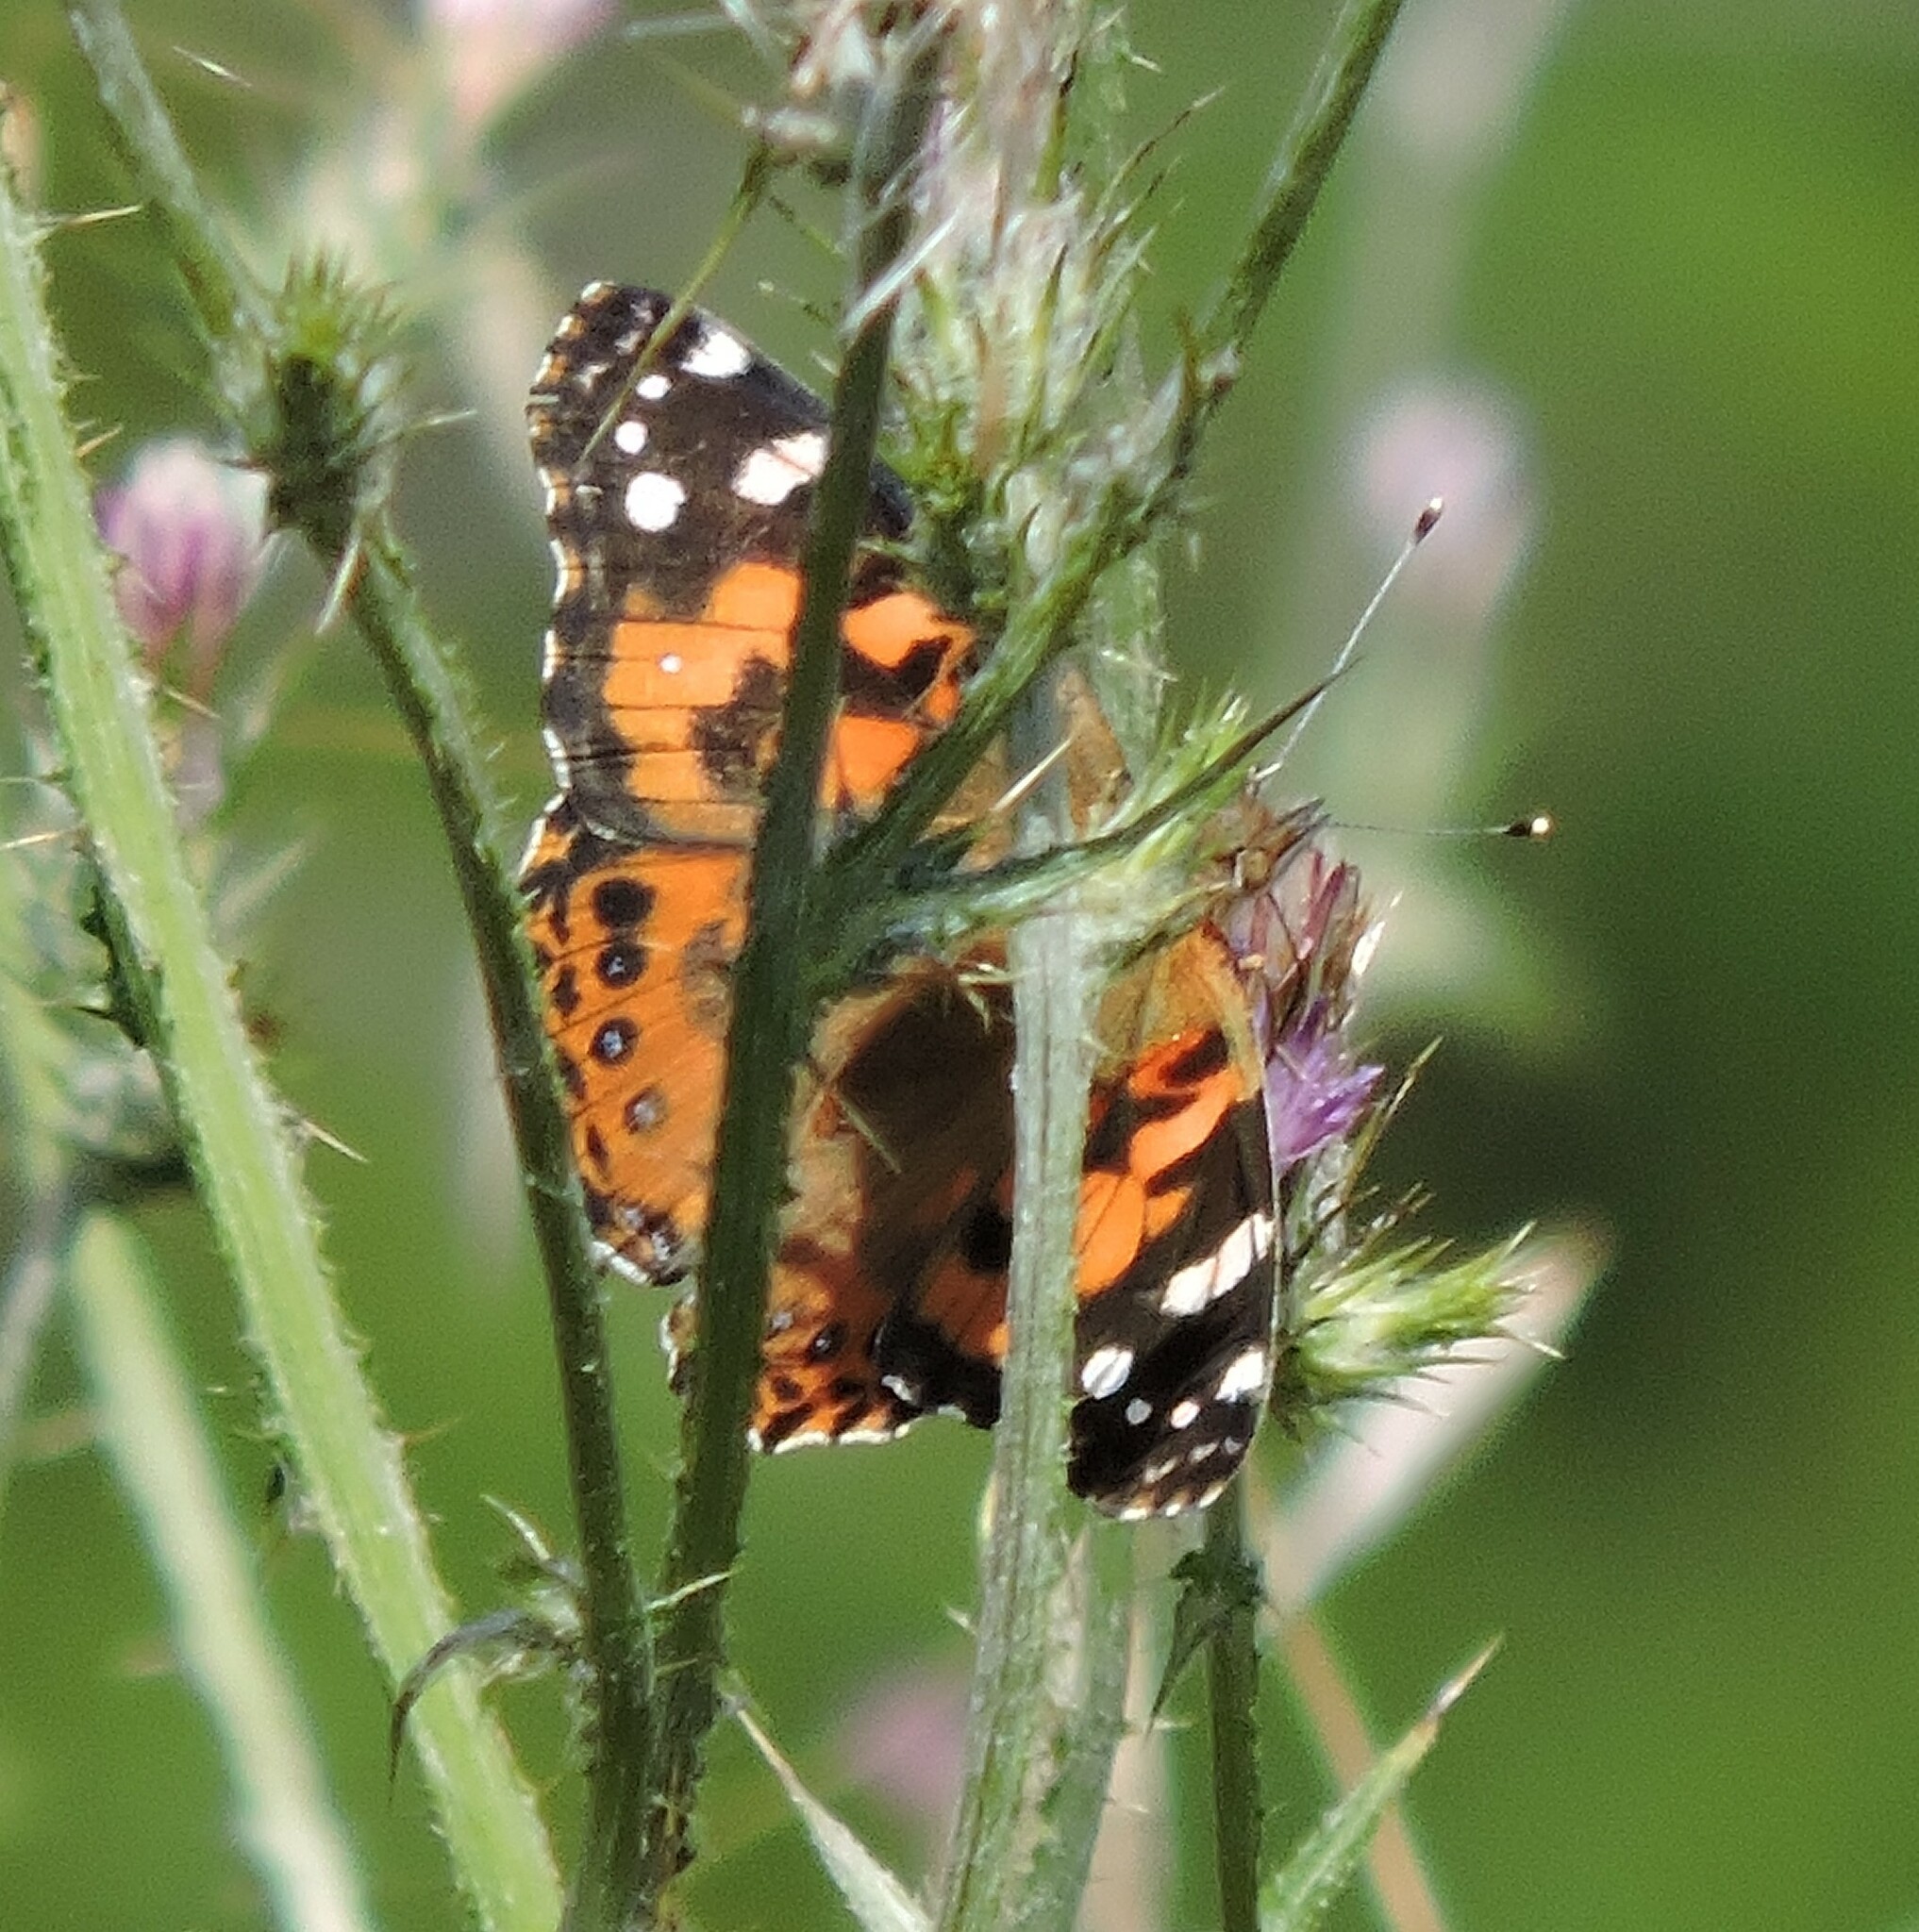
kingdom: Animalia
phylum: Arthropoda
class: Insecta
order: Lepidoptera
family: Nymphalidae
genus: Vanessa
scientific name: Vanessa cardui
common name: Painted lady
